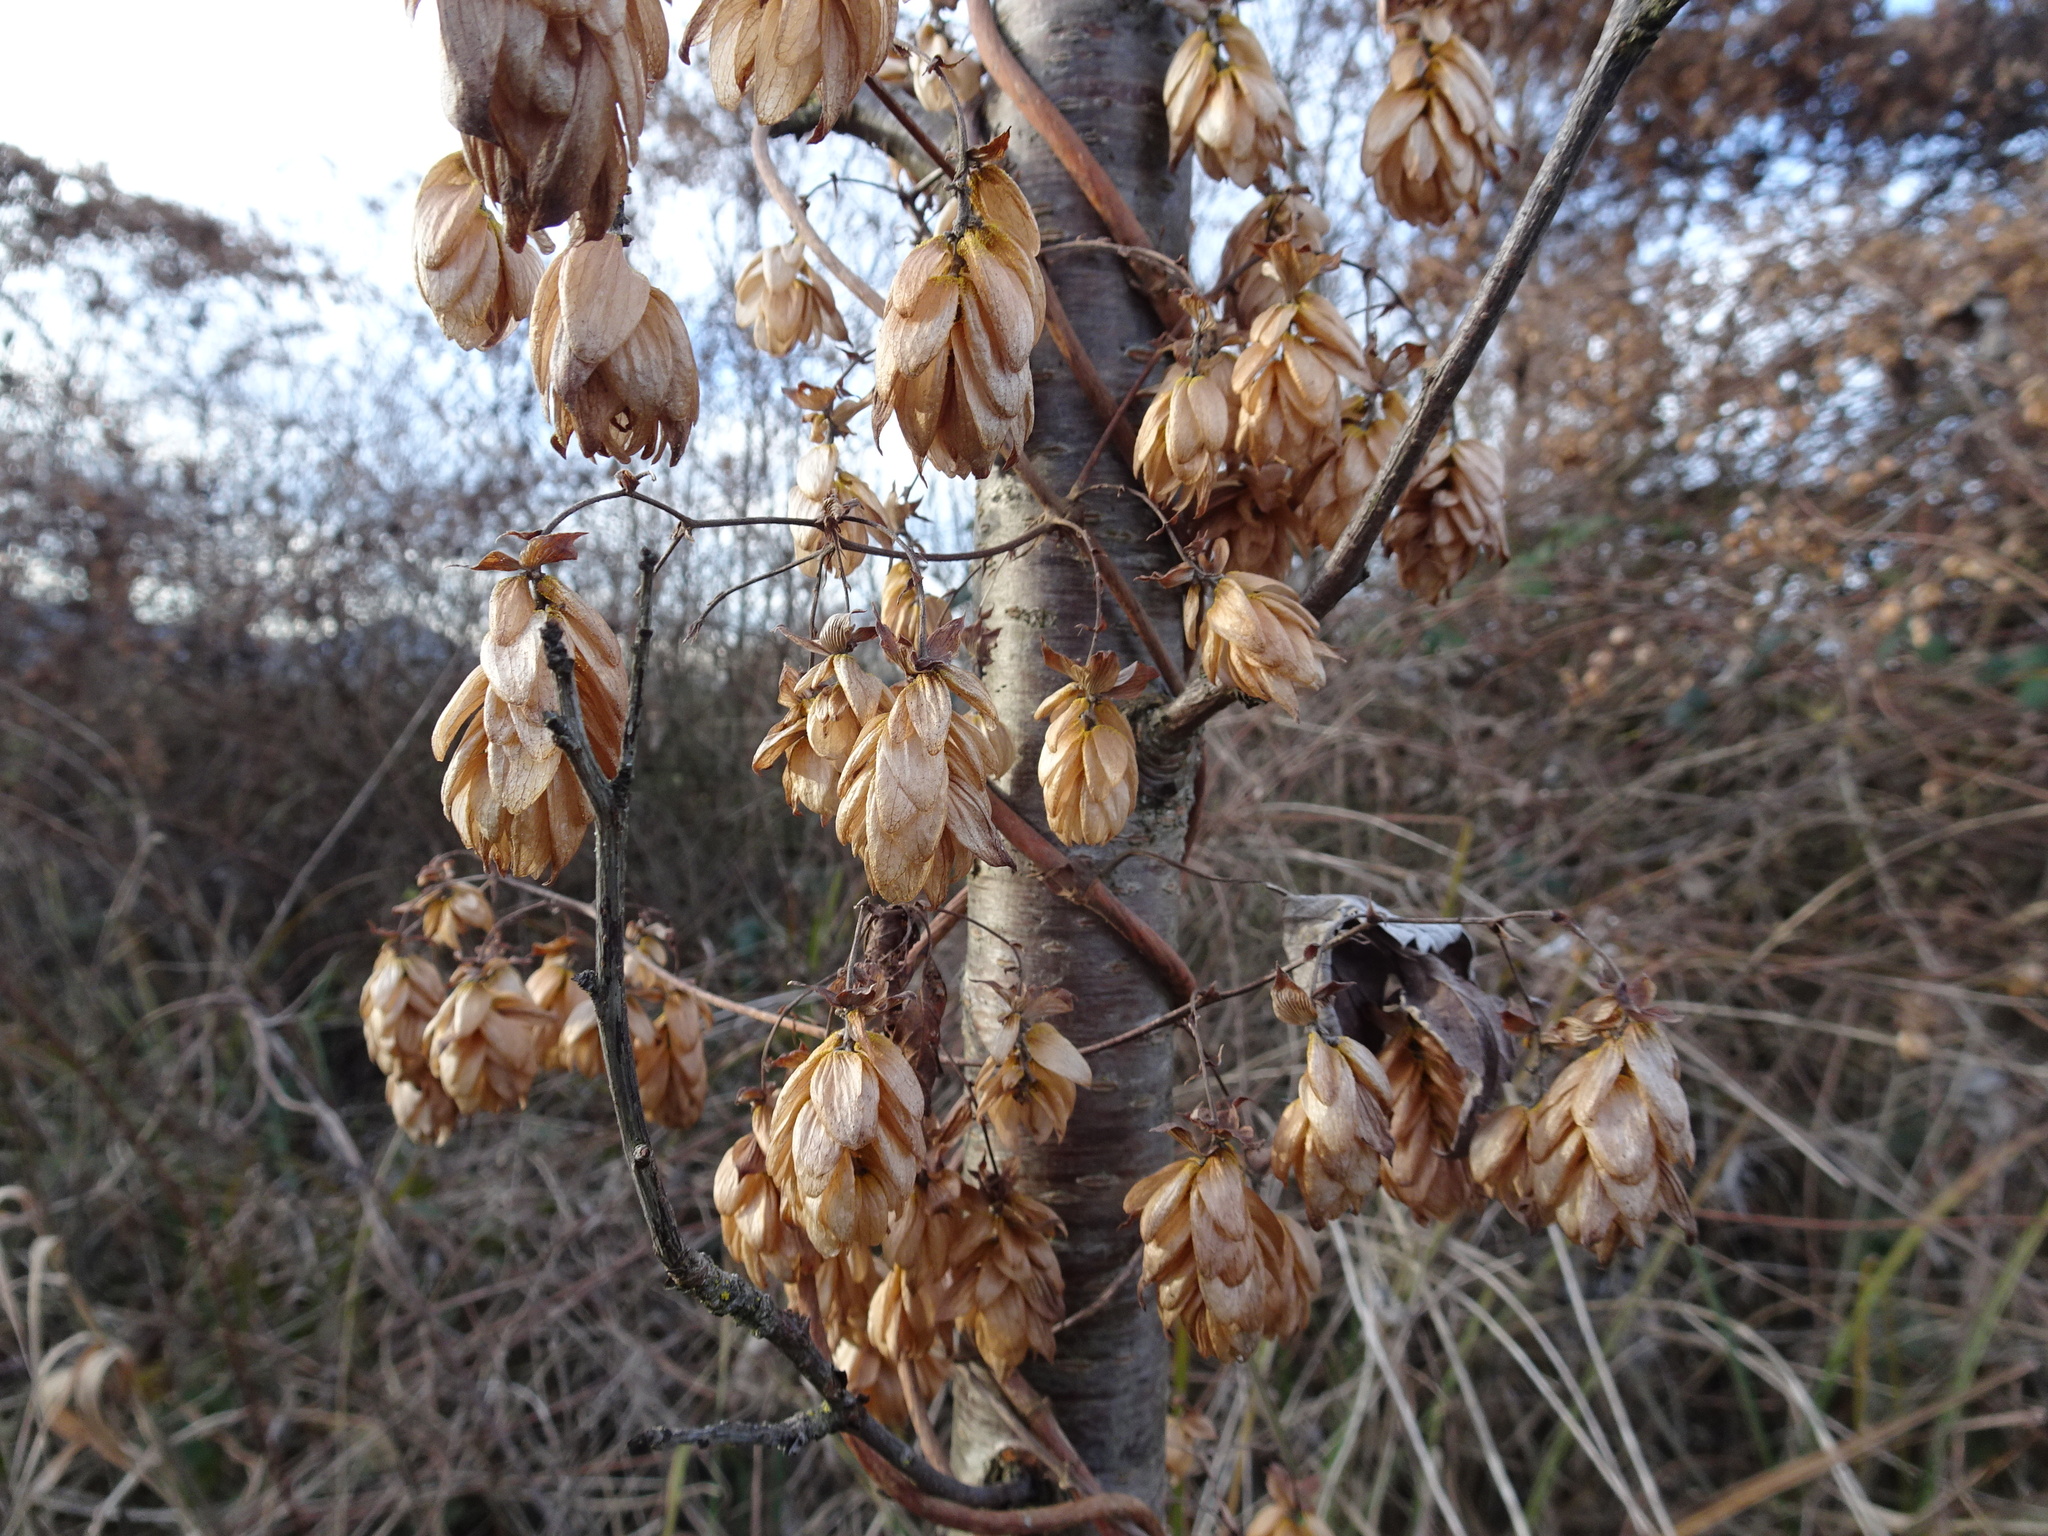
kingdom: Plantae
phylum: Tracheophyta
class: Magnoliopsida
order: Rosales
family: Cannabaceae
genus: Humulus
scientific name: Humulus lupulus
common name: Hop
